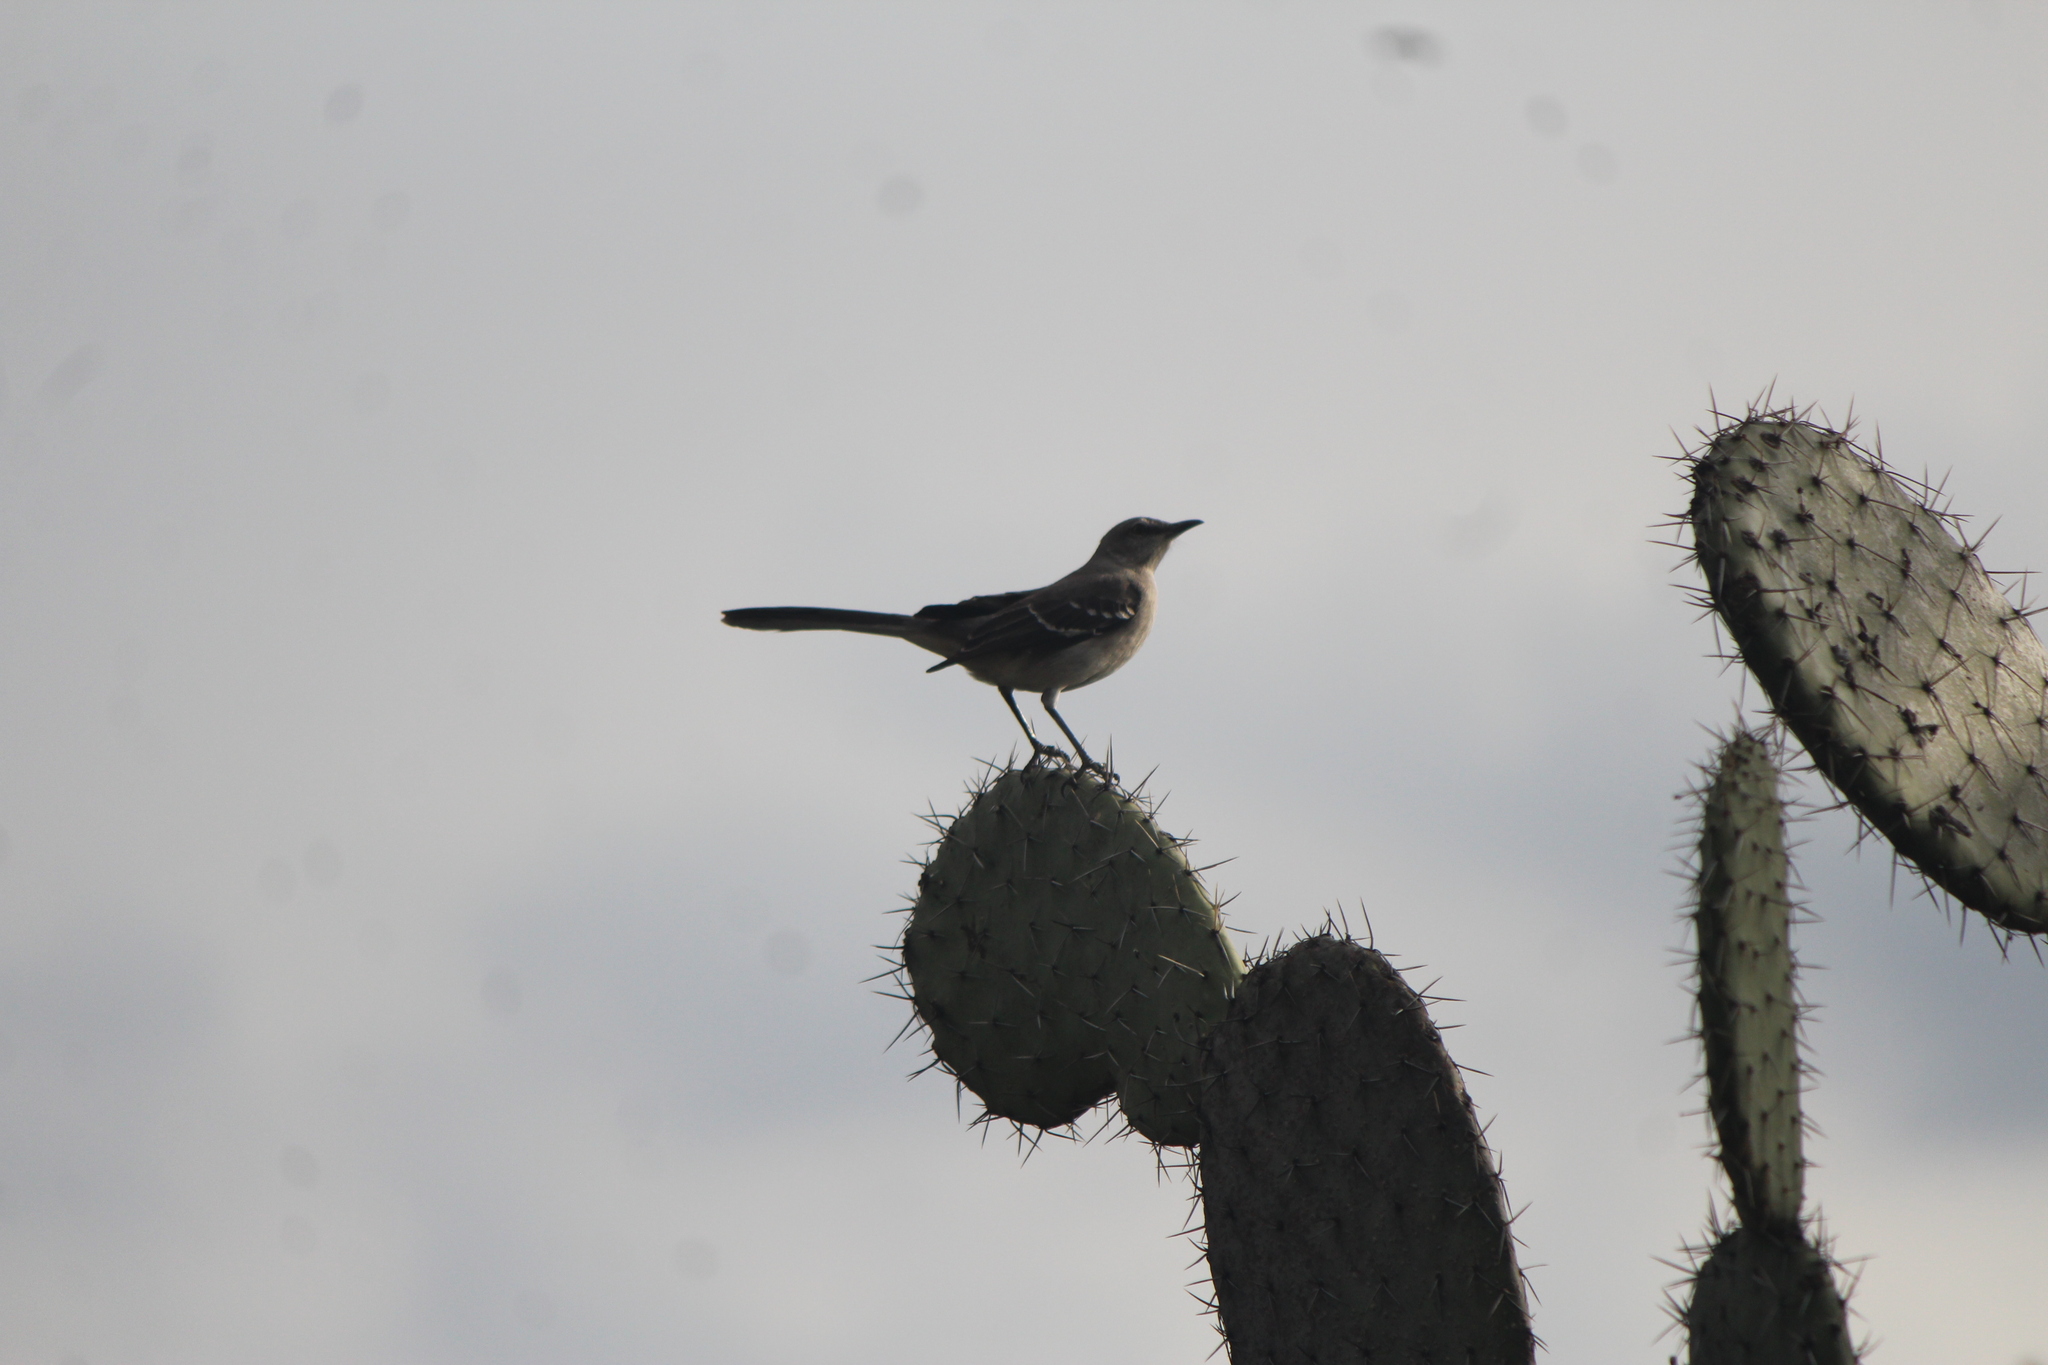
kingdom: Animalia
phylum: Chordata
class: Aves
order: Passeriformes
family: Mimidae
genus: Mimus
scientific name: Mimus polyglottos
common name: Northern mockingbird
